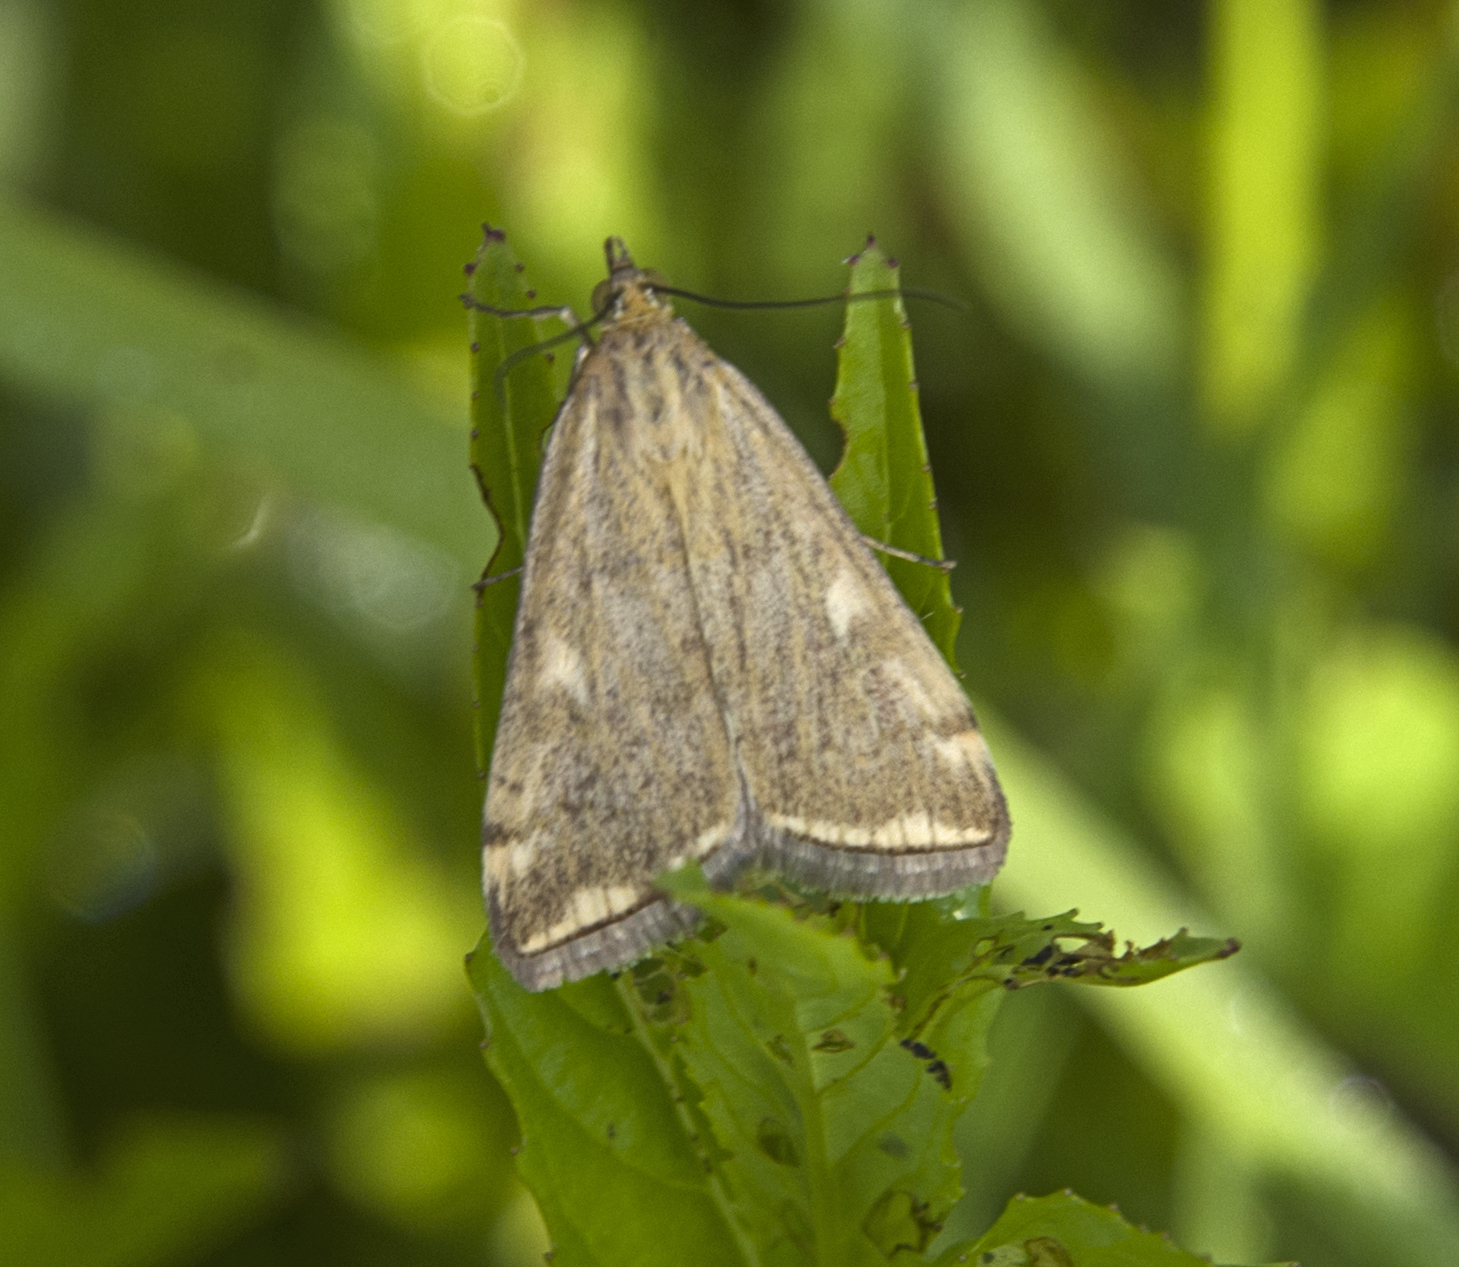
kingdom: Animalia
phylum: Arthropoda
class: Insecta
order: Lepidoptera
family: Crambidae
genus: Loxostege
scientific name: Loxostege sticticalis
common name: Crambid moth
